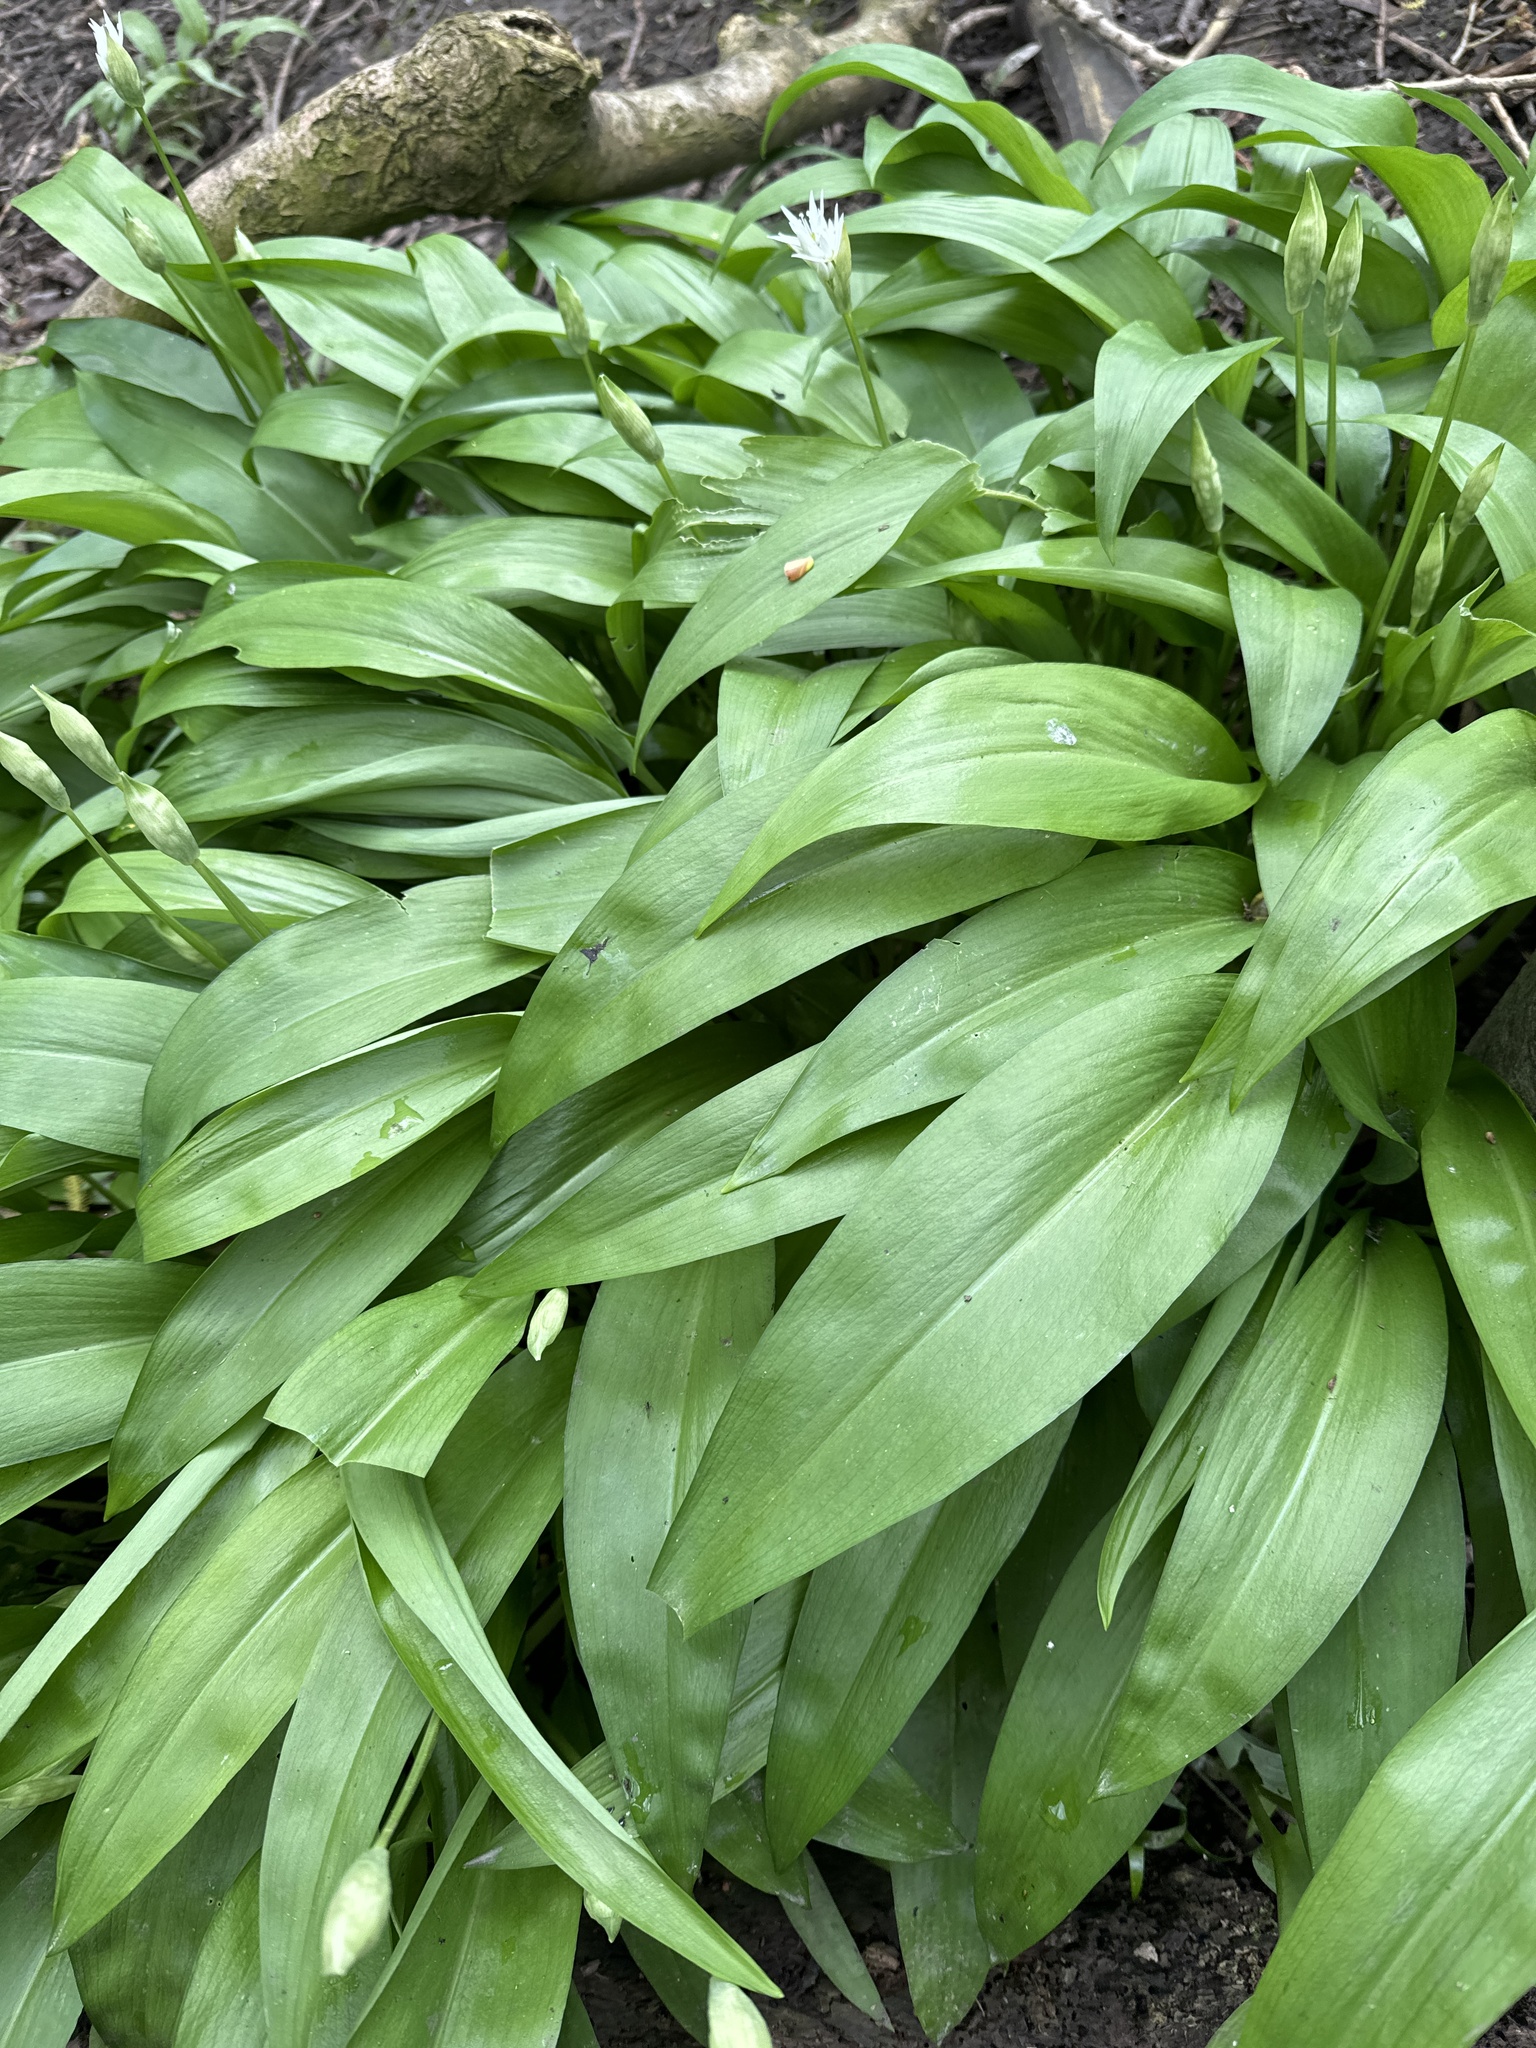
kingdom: Plantae
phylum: Tracheophyta
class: Liliopsida
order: Asparagales
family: Amaryllidaceae
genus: Allium
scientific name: Allium ursinum
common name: Ramsons
